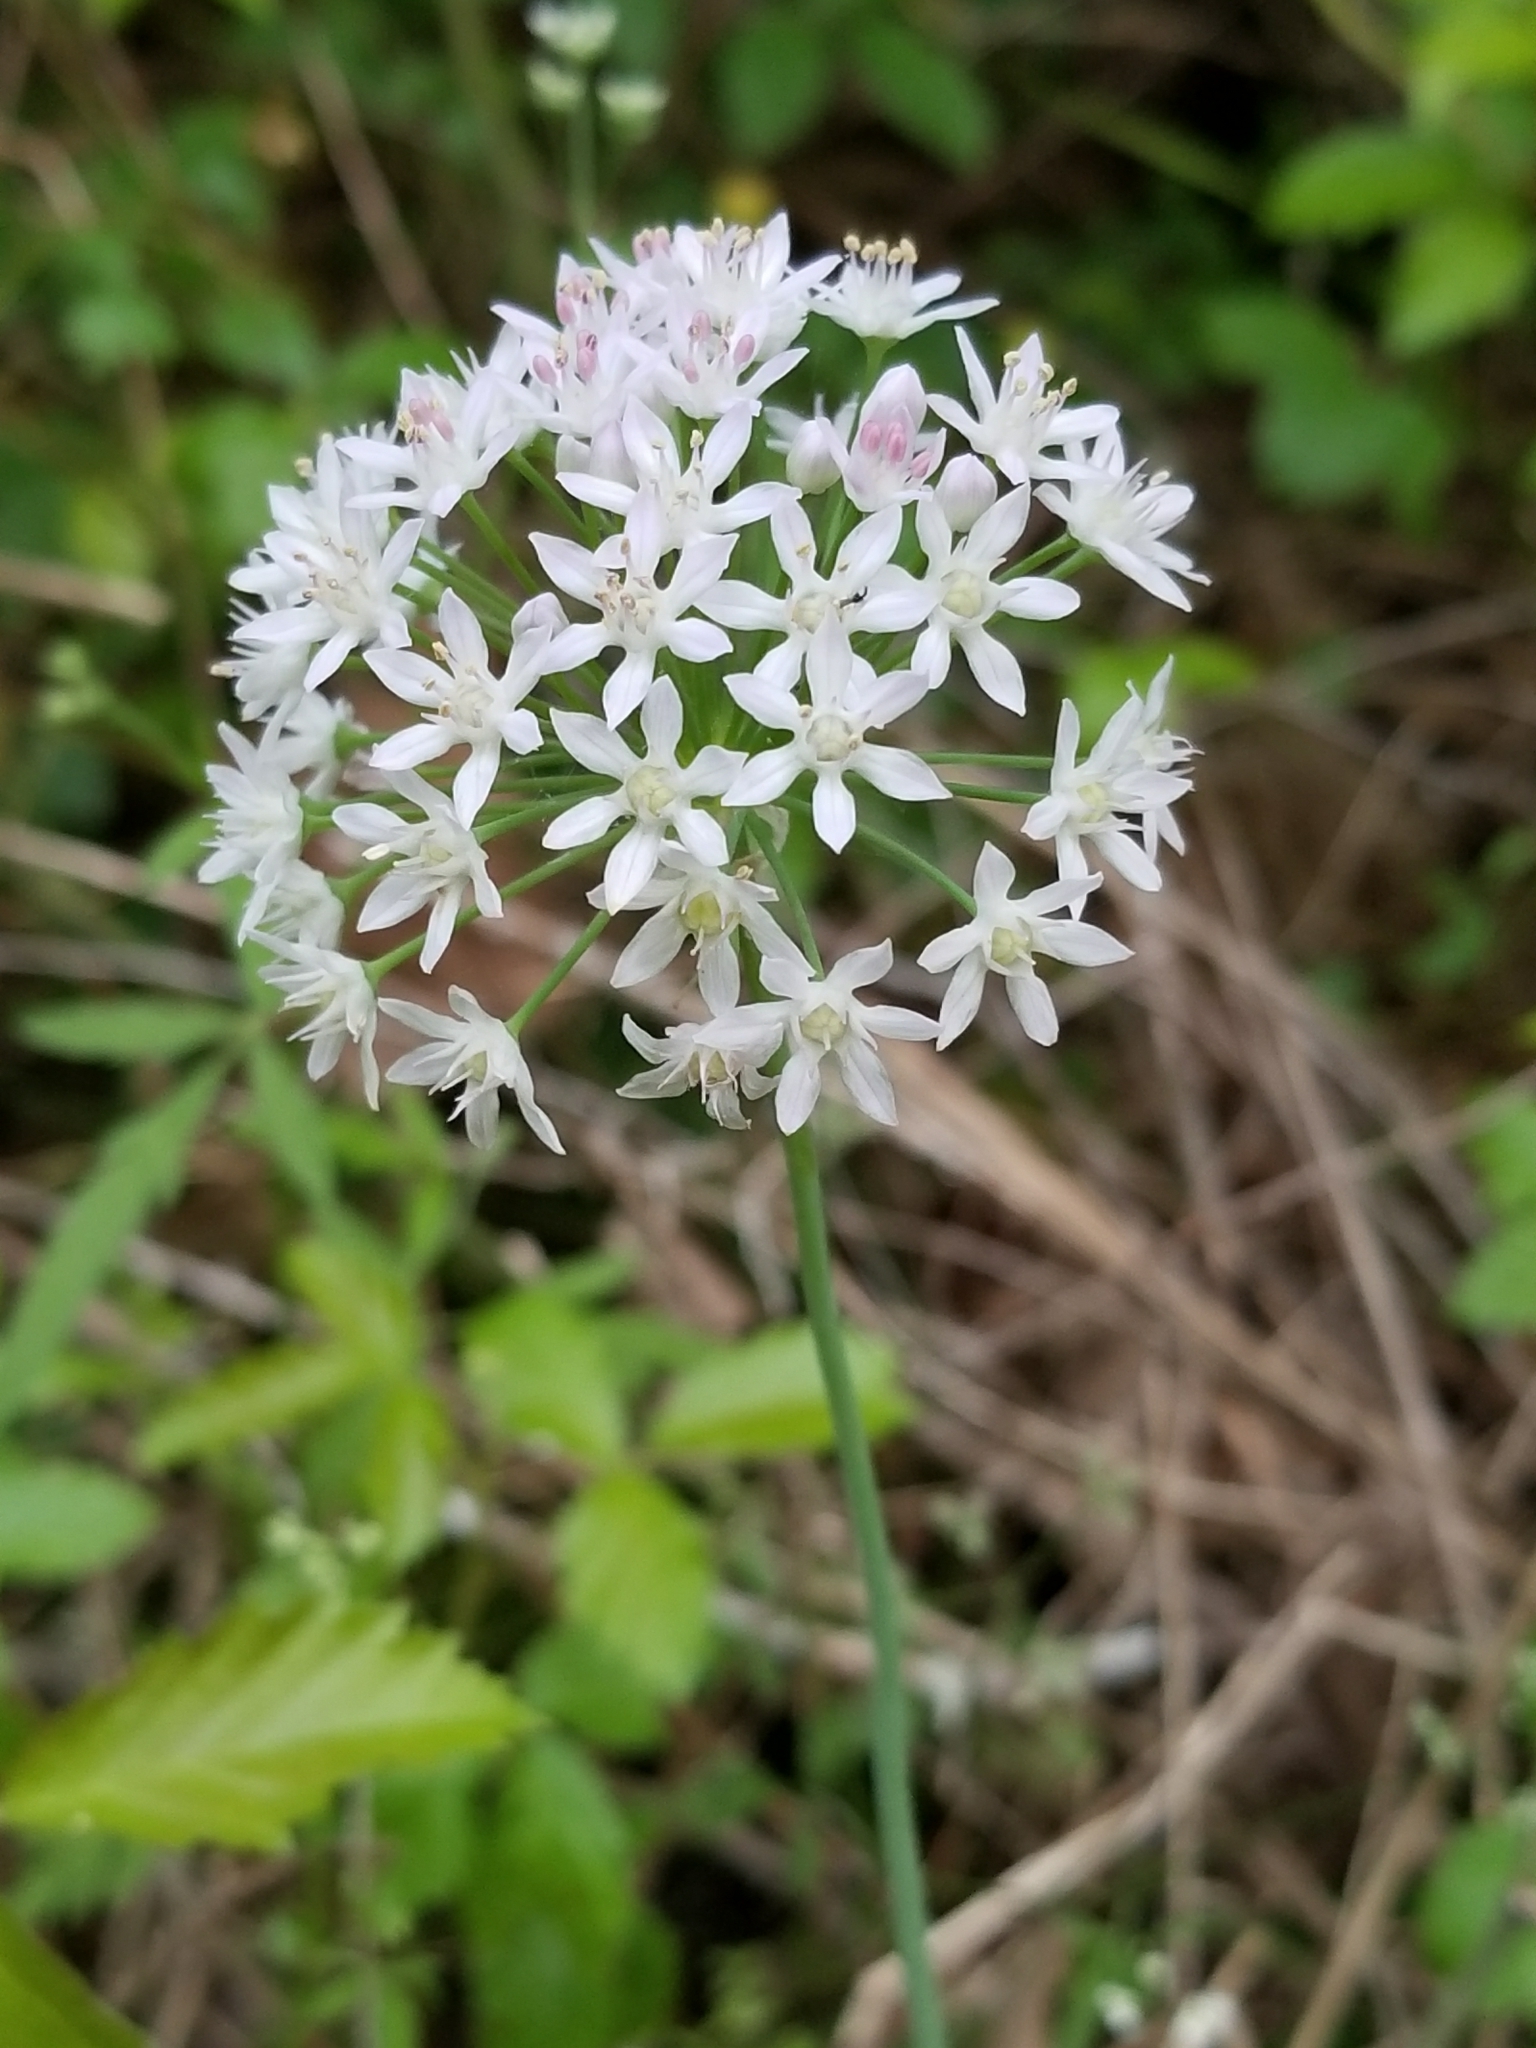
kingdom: Plantae
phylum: Tracheophyta
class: Liliopsida
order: Asparagales
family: Amaryllidaceae
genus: Allium
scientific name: Allium canadense
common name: Meadow garlic
